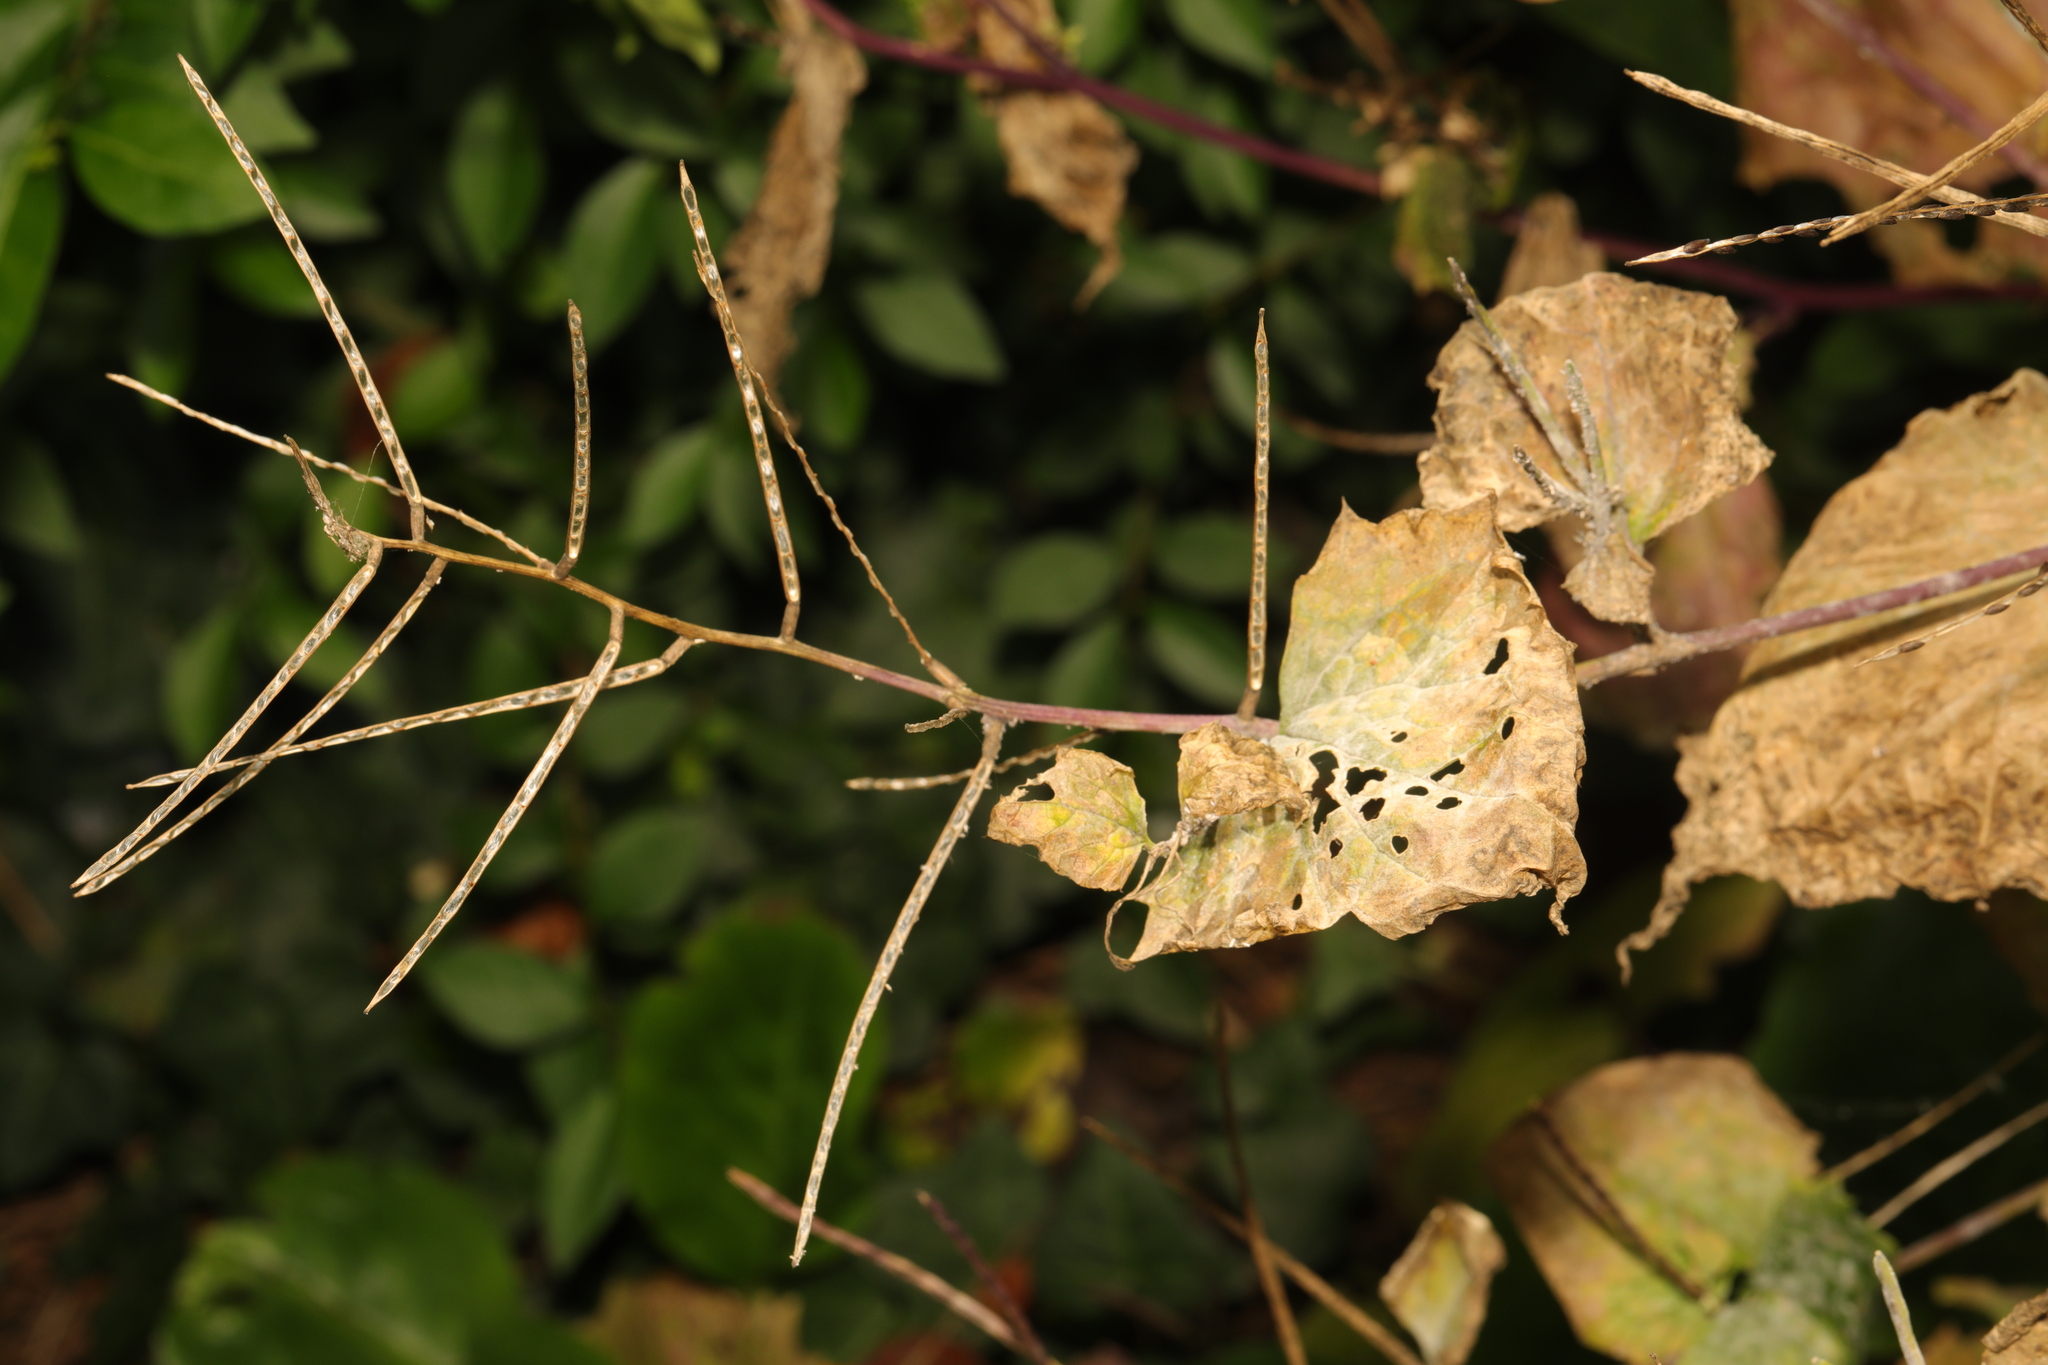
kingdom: Plantae
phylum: Tracheophyta
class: Magnoliopsida
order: Brassicales
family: Brassicaceae
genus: Alliaria
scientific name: Alliaria petiolata
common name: Garlic mustard
